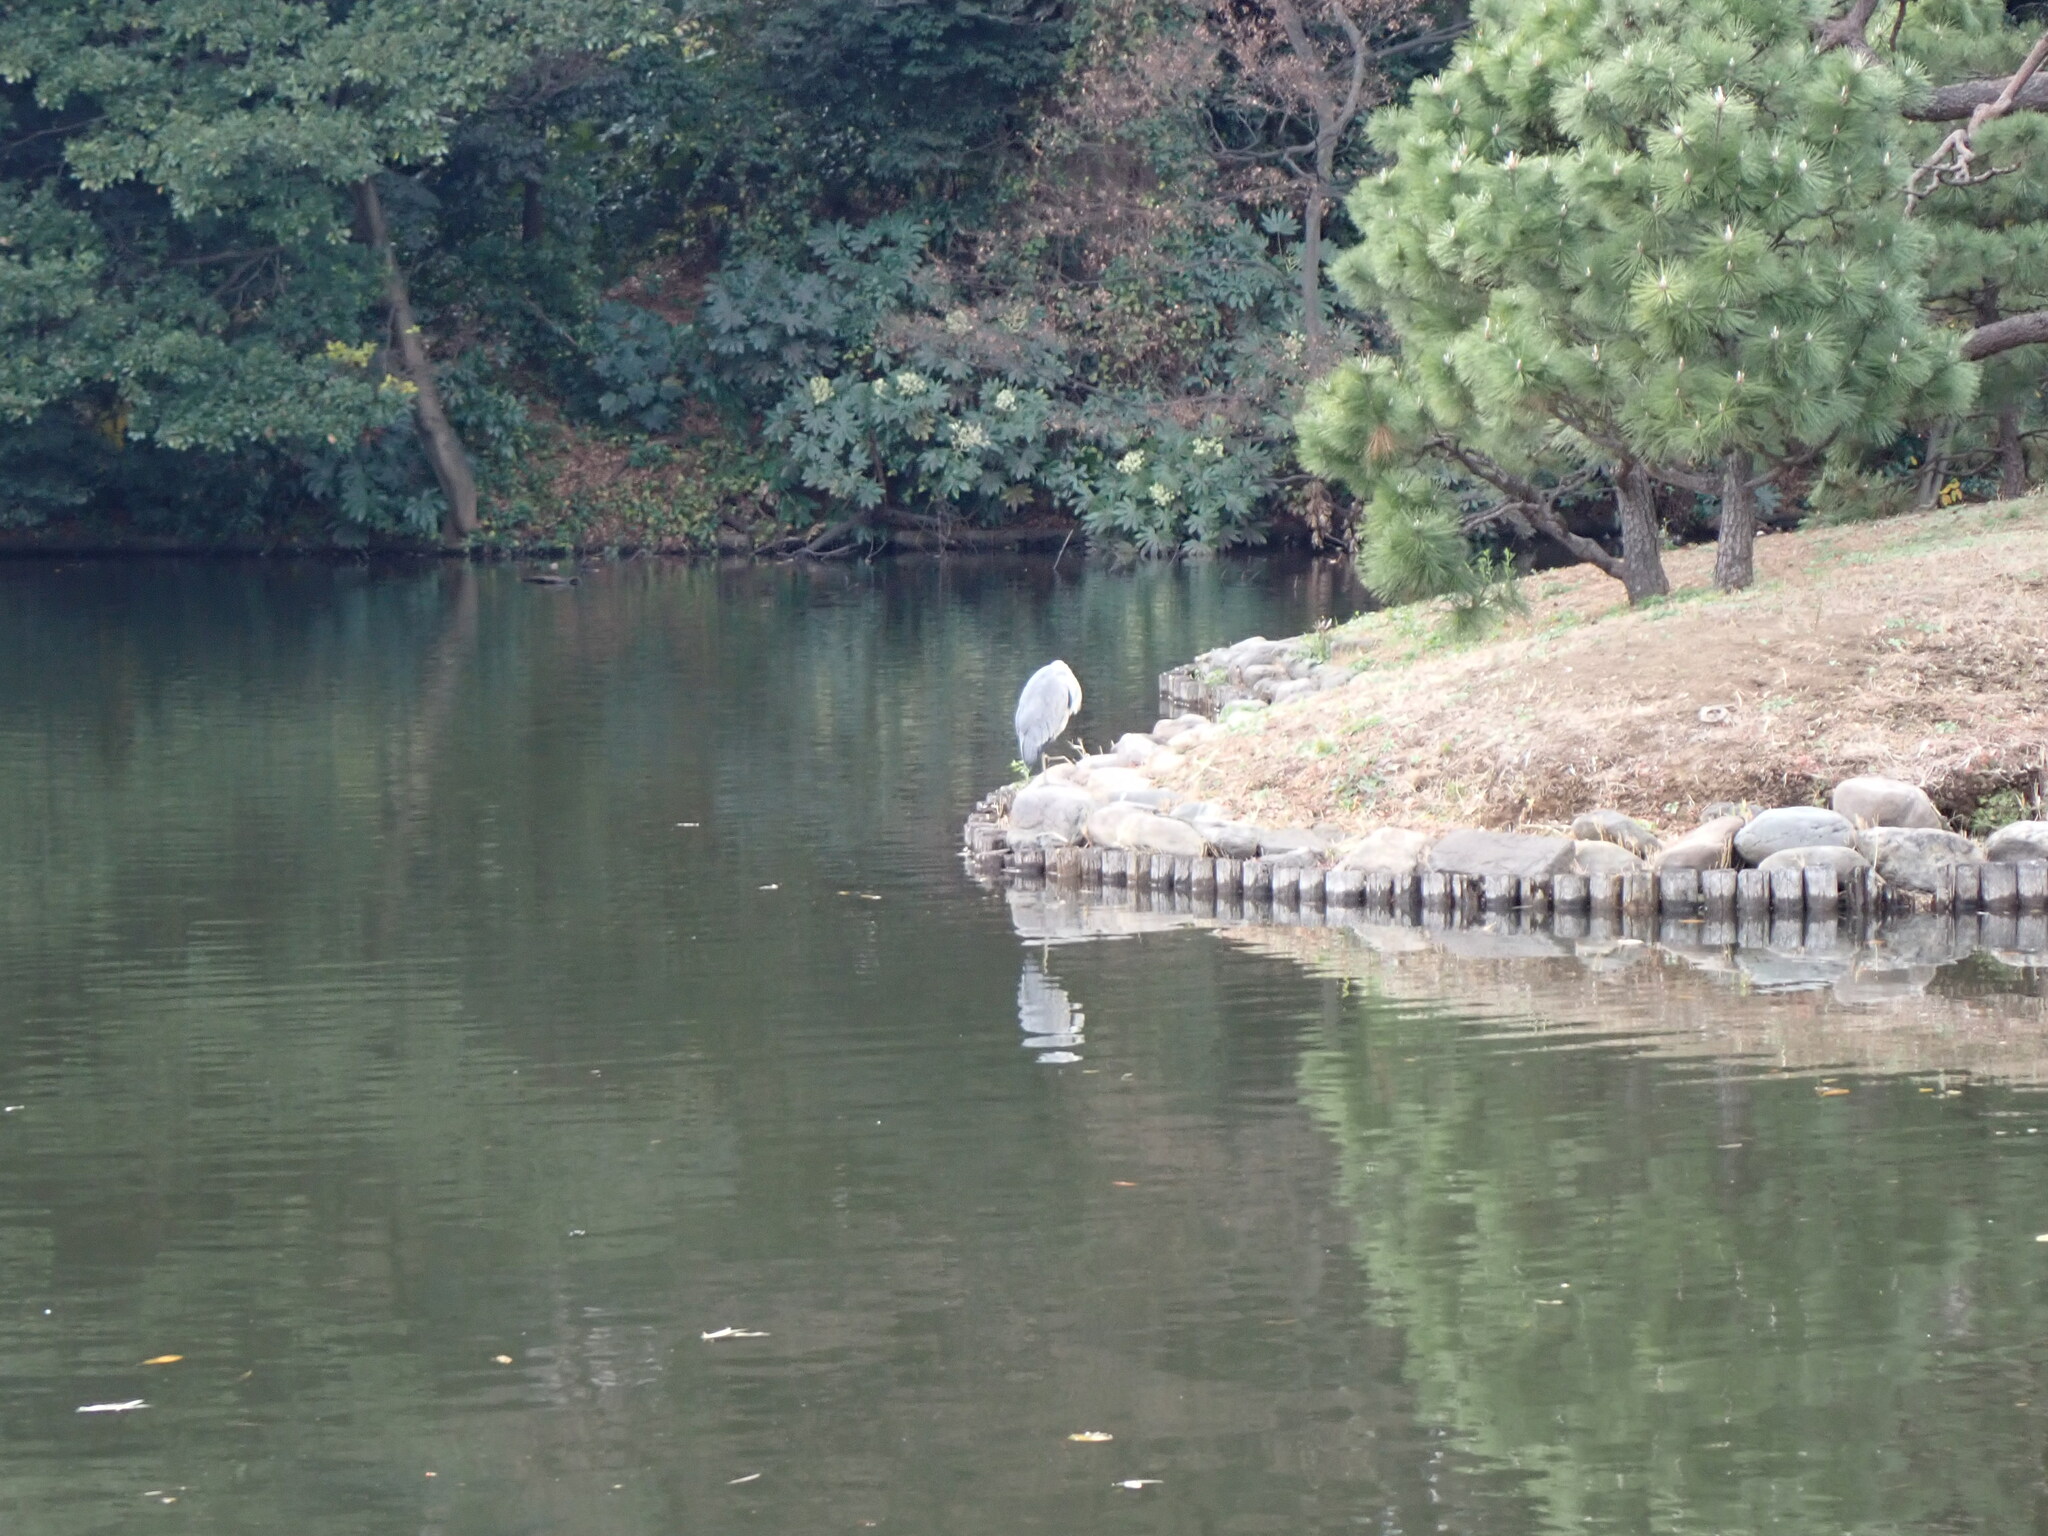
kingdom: Animalia
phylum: Chordata
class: Aves
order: Pelecaniformes
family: Ardeidae
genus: Ardea
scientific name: Ardea cinerea
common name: Grey heron
